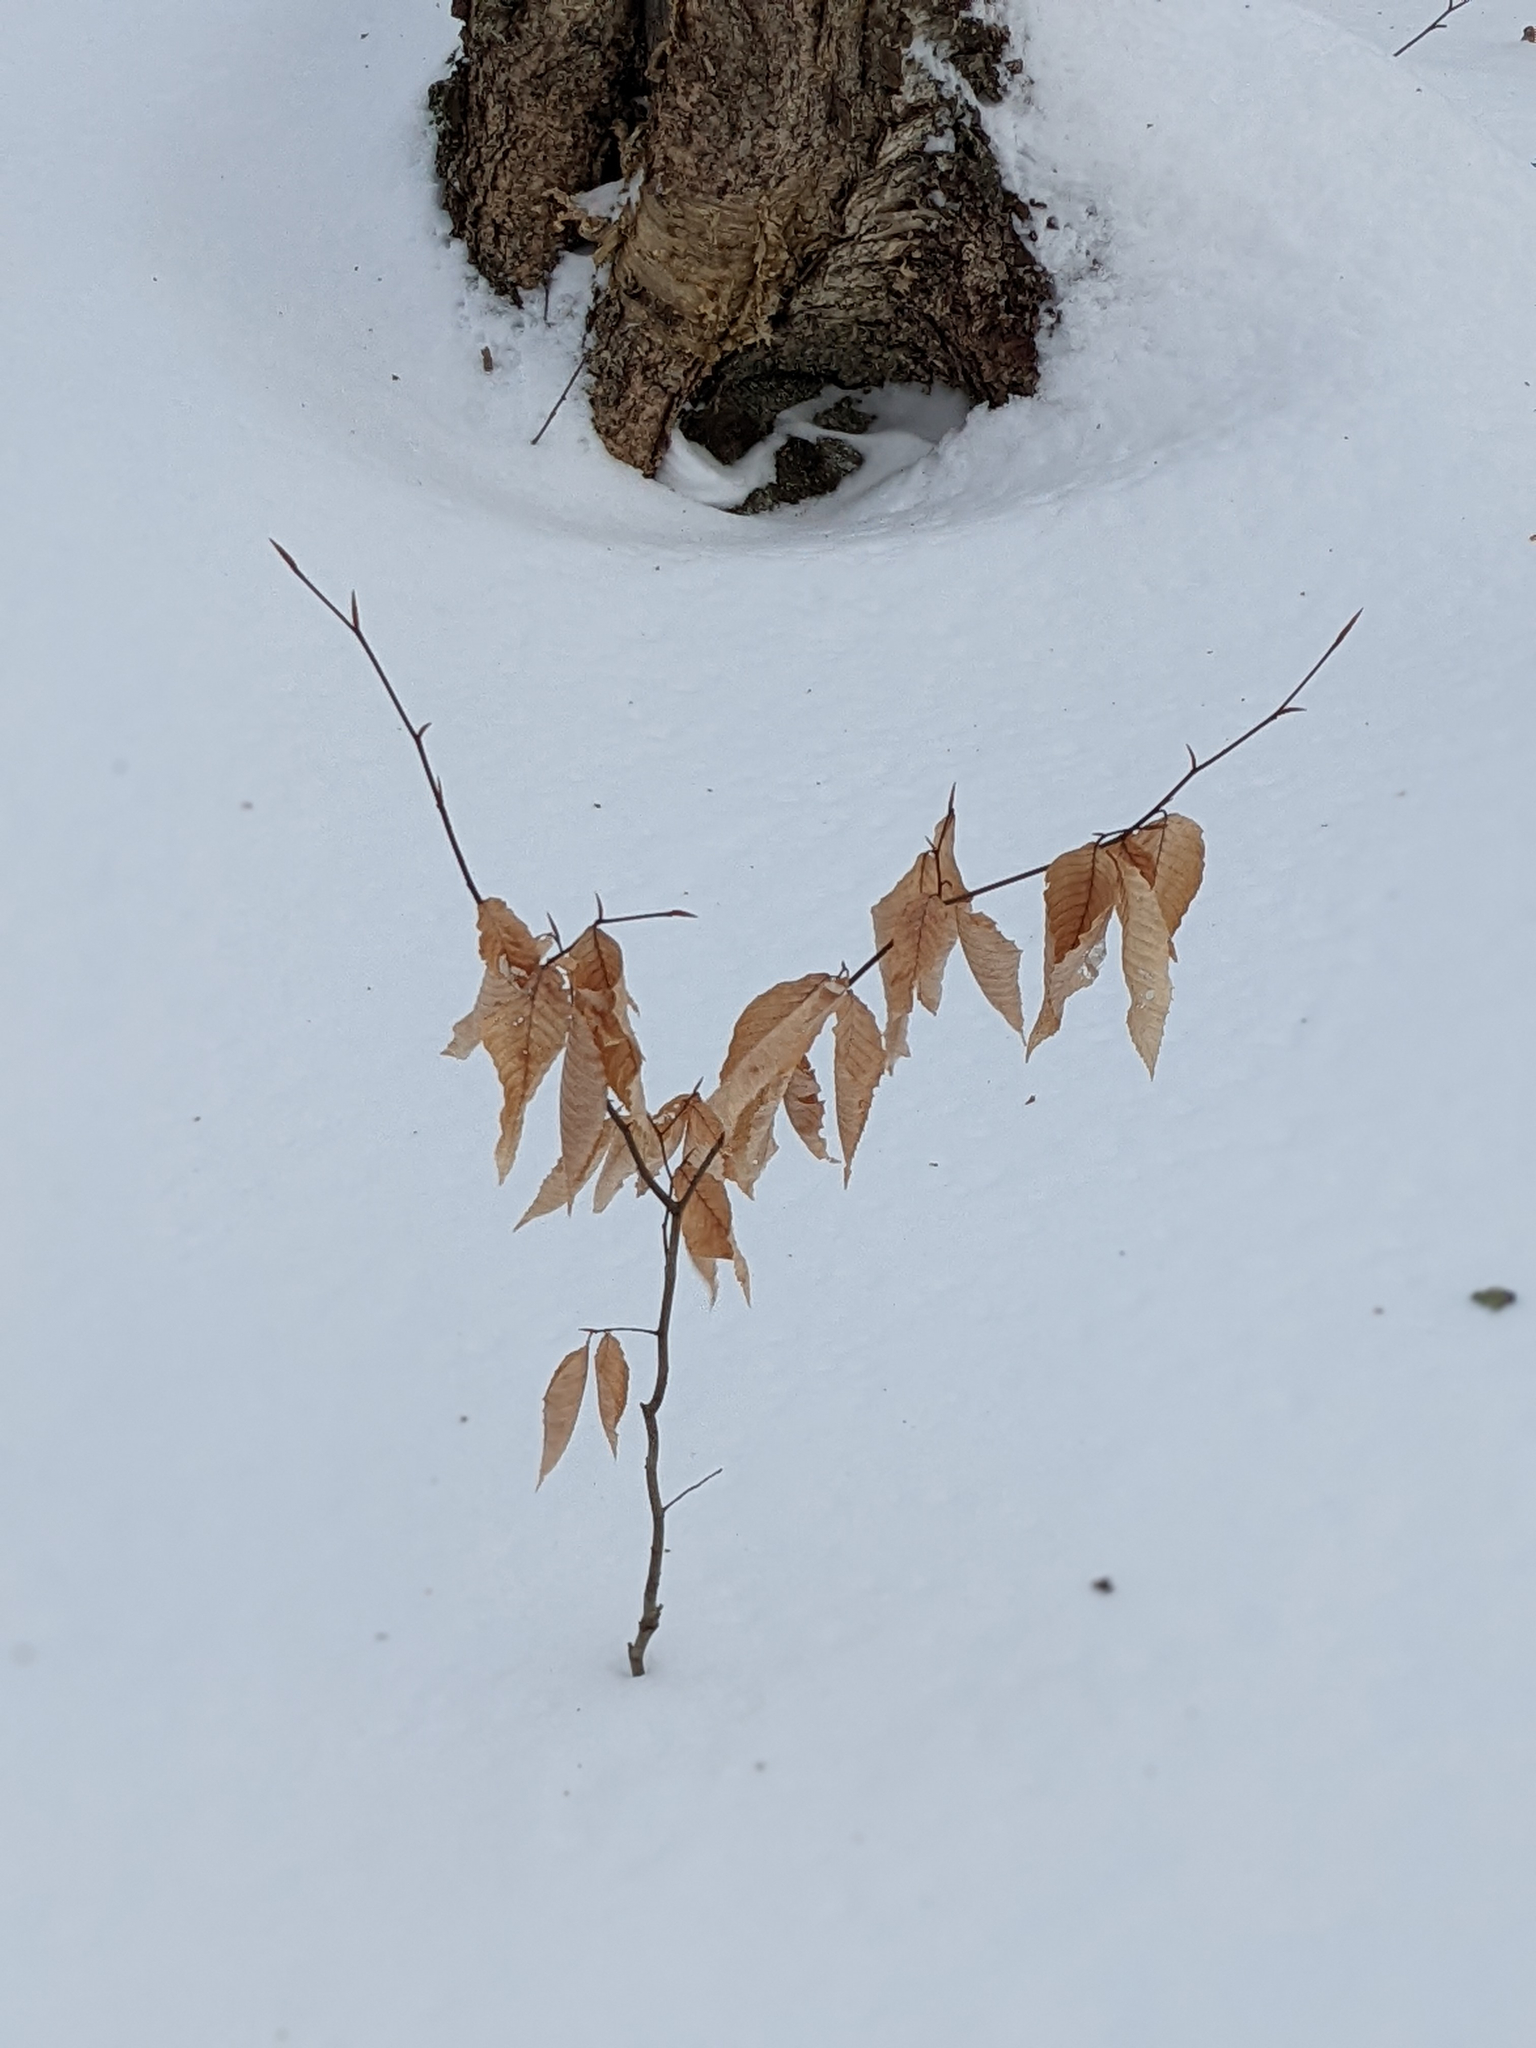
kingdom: Plantae
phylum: Tracheophyta
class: Magnoliopsida
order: Fagales
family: Fagaceae
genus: Fagus
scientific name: Fagus grandifolia
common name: American beech
